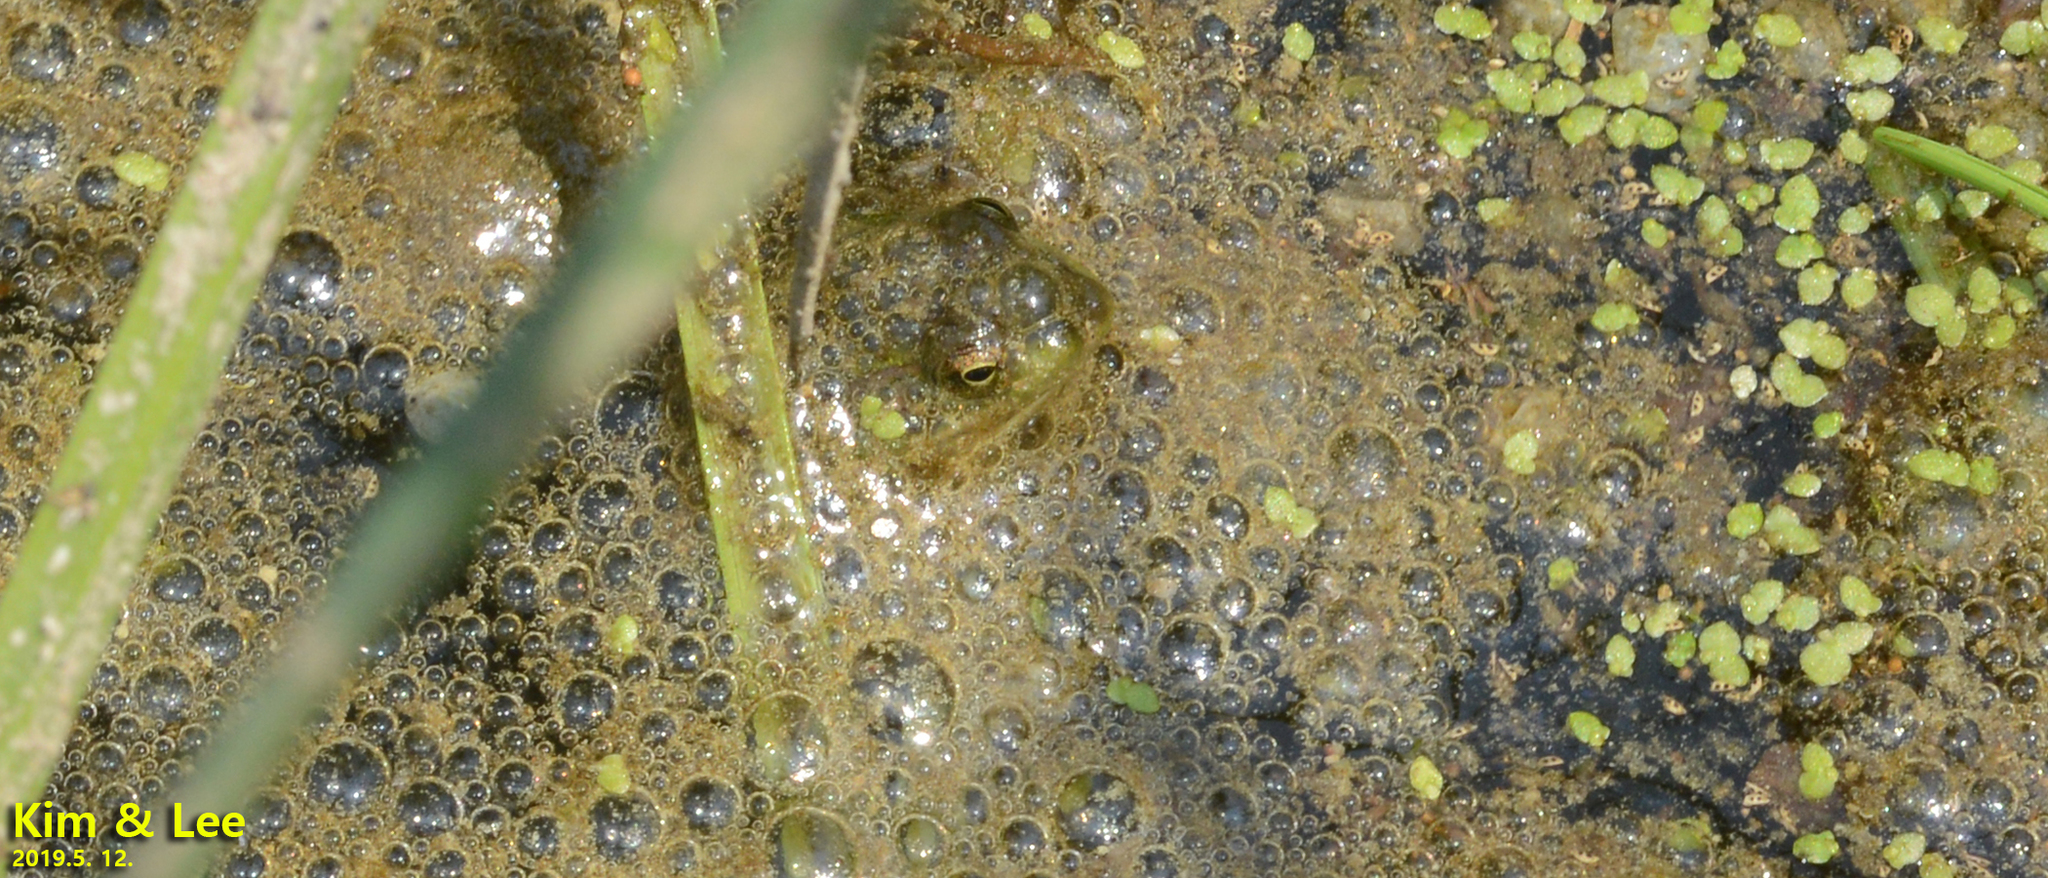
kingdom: Animalia
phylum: Chordata
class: Amphibia
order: Anura
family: Ranidae
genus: Pelophylax
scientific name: Pelophylax chosenicus
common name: Gold-spotted pond frog
